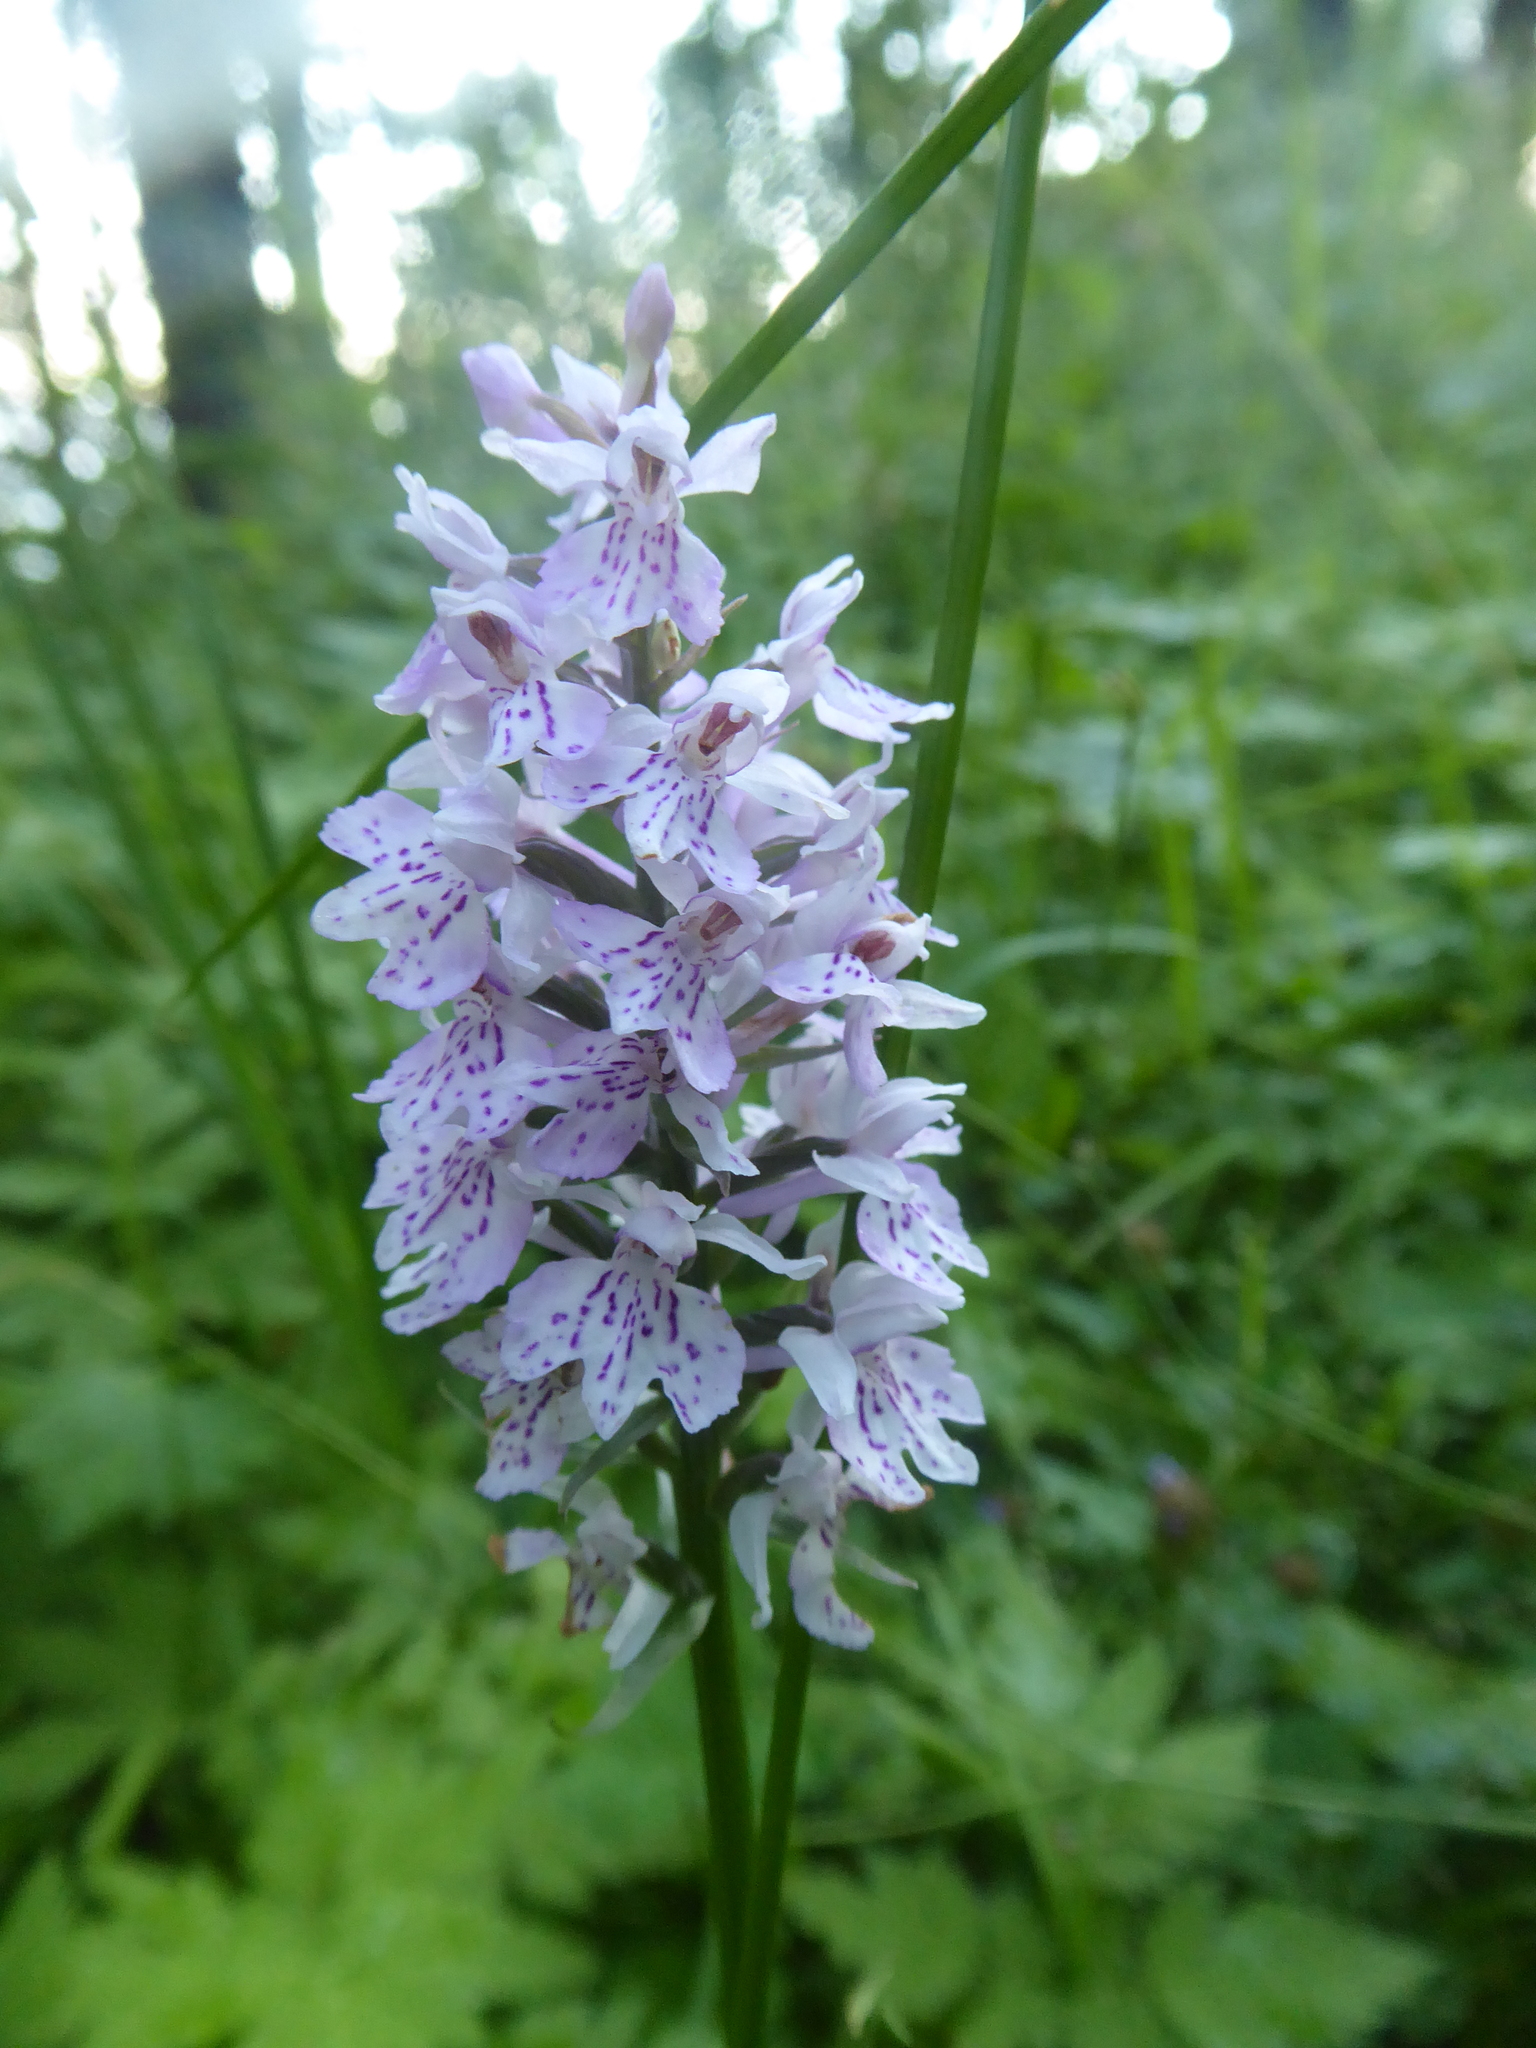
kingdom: Plantae
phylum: Tracheophyta
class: Liliopsida
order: Asparagales
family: Orchidaceae
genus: Dactylorhiza
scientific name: Dactylorhiza maculata
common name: Heath spotted-orchid
